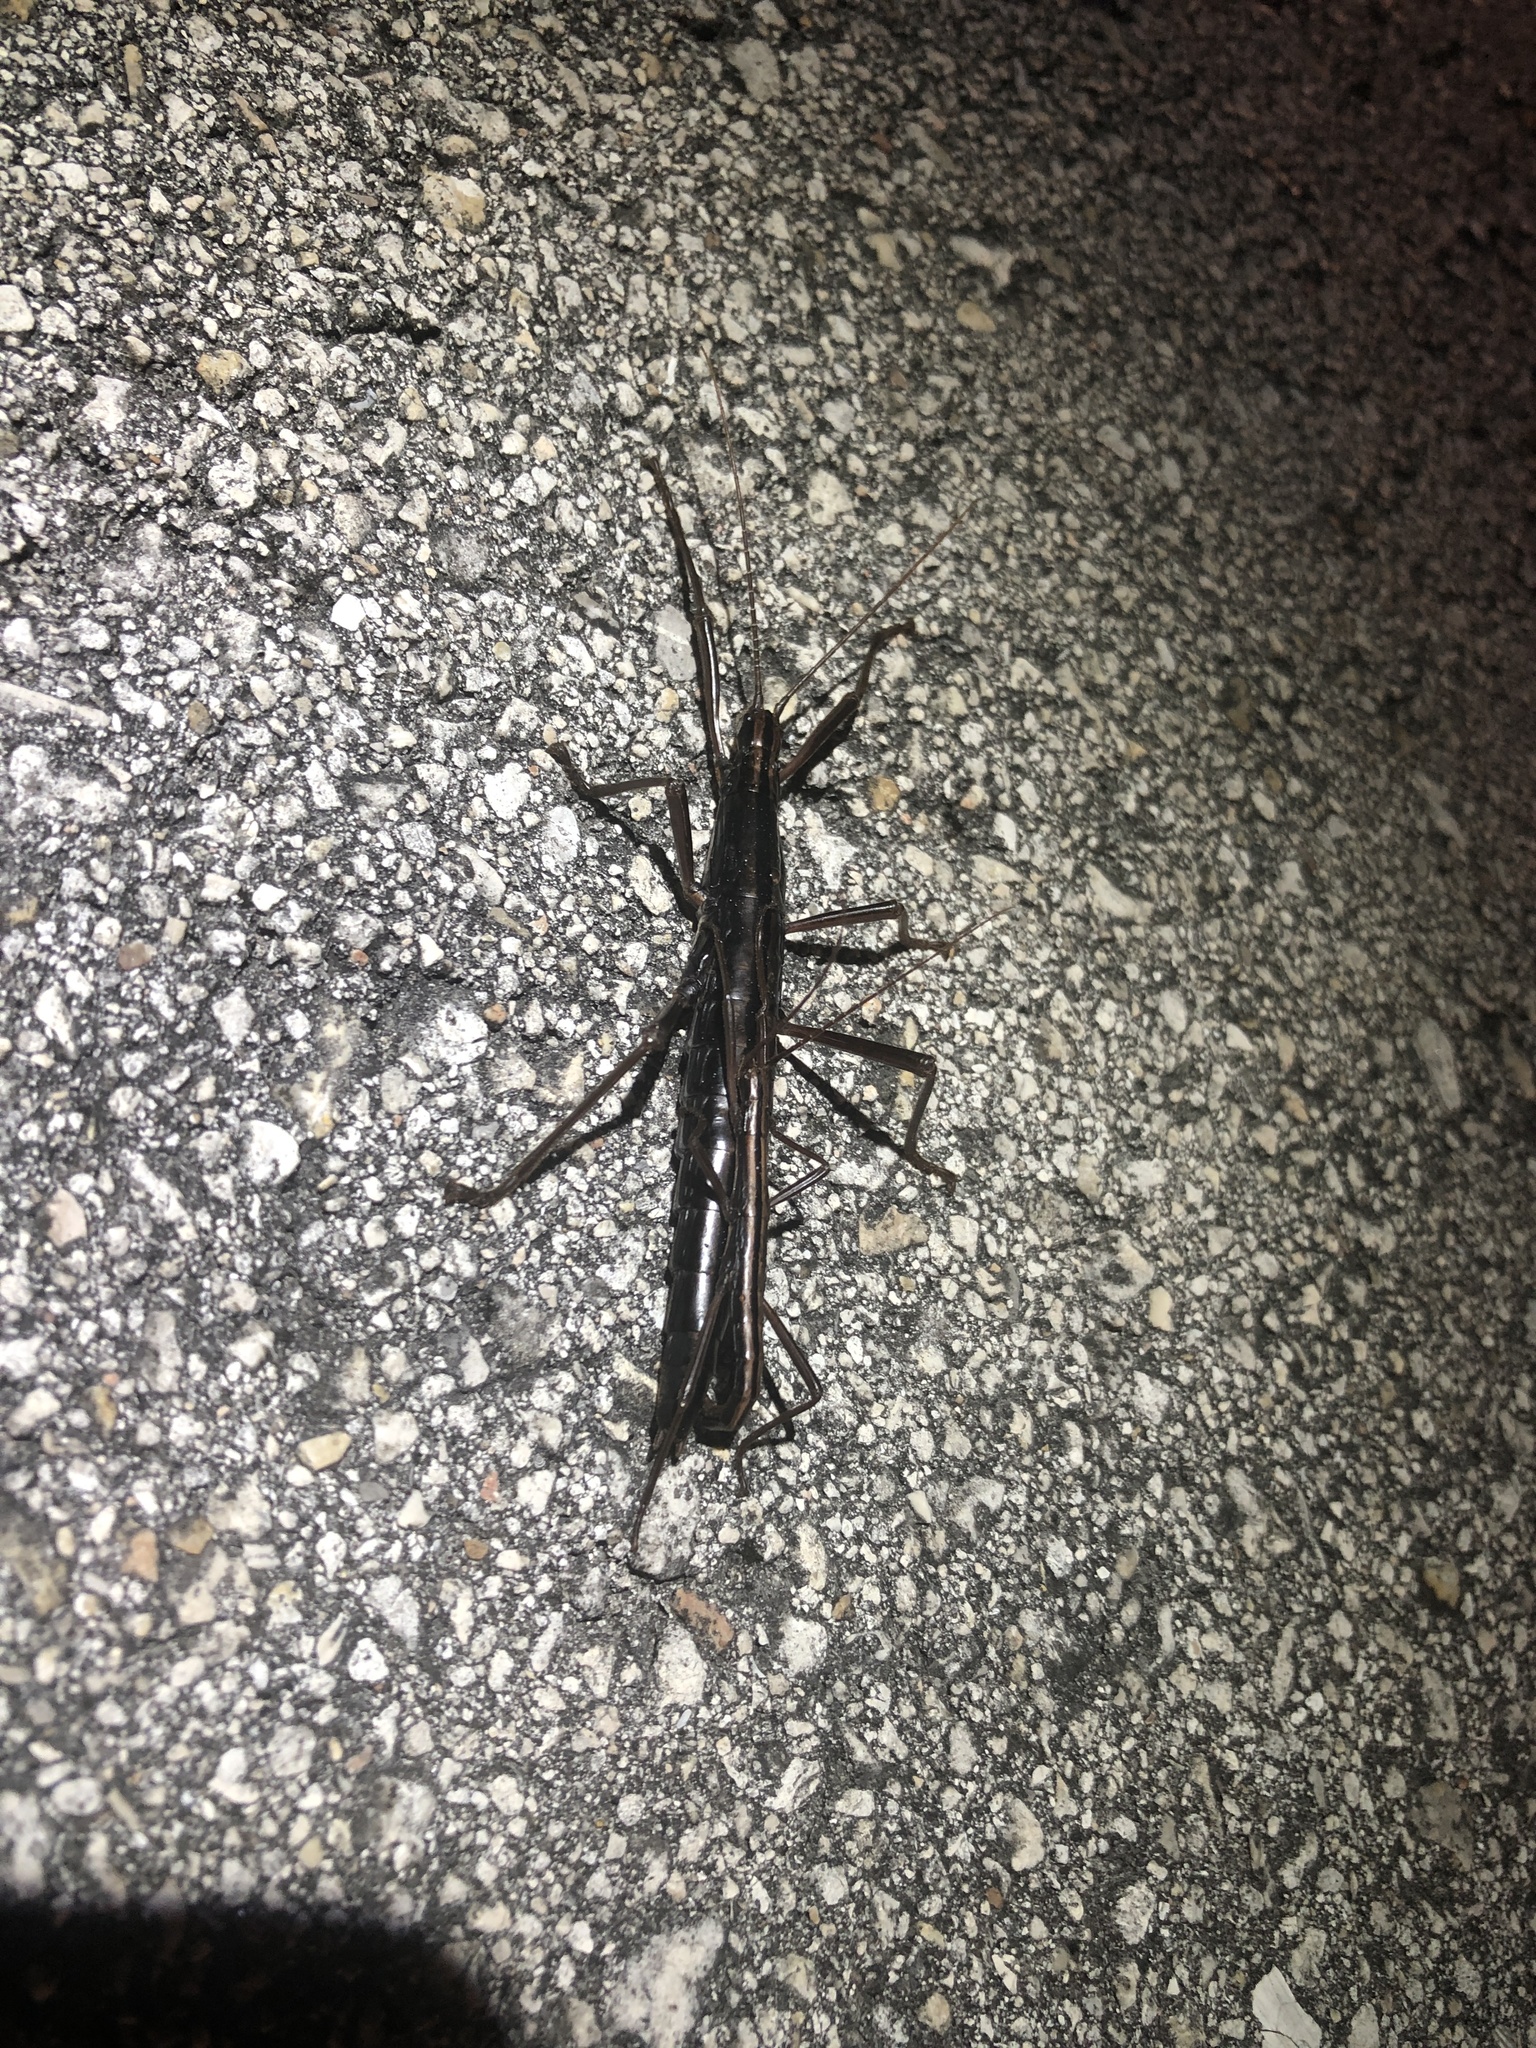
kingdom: Animalia
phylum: Arthropoda
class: Insecta
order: Phasmida
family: Pseudophasmatidae
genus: Anisomorpha
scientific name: Anisomorpha buprestoides
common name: Florida stick insect
